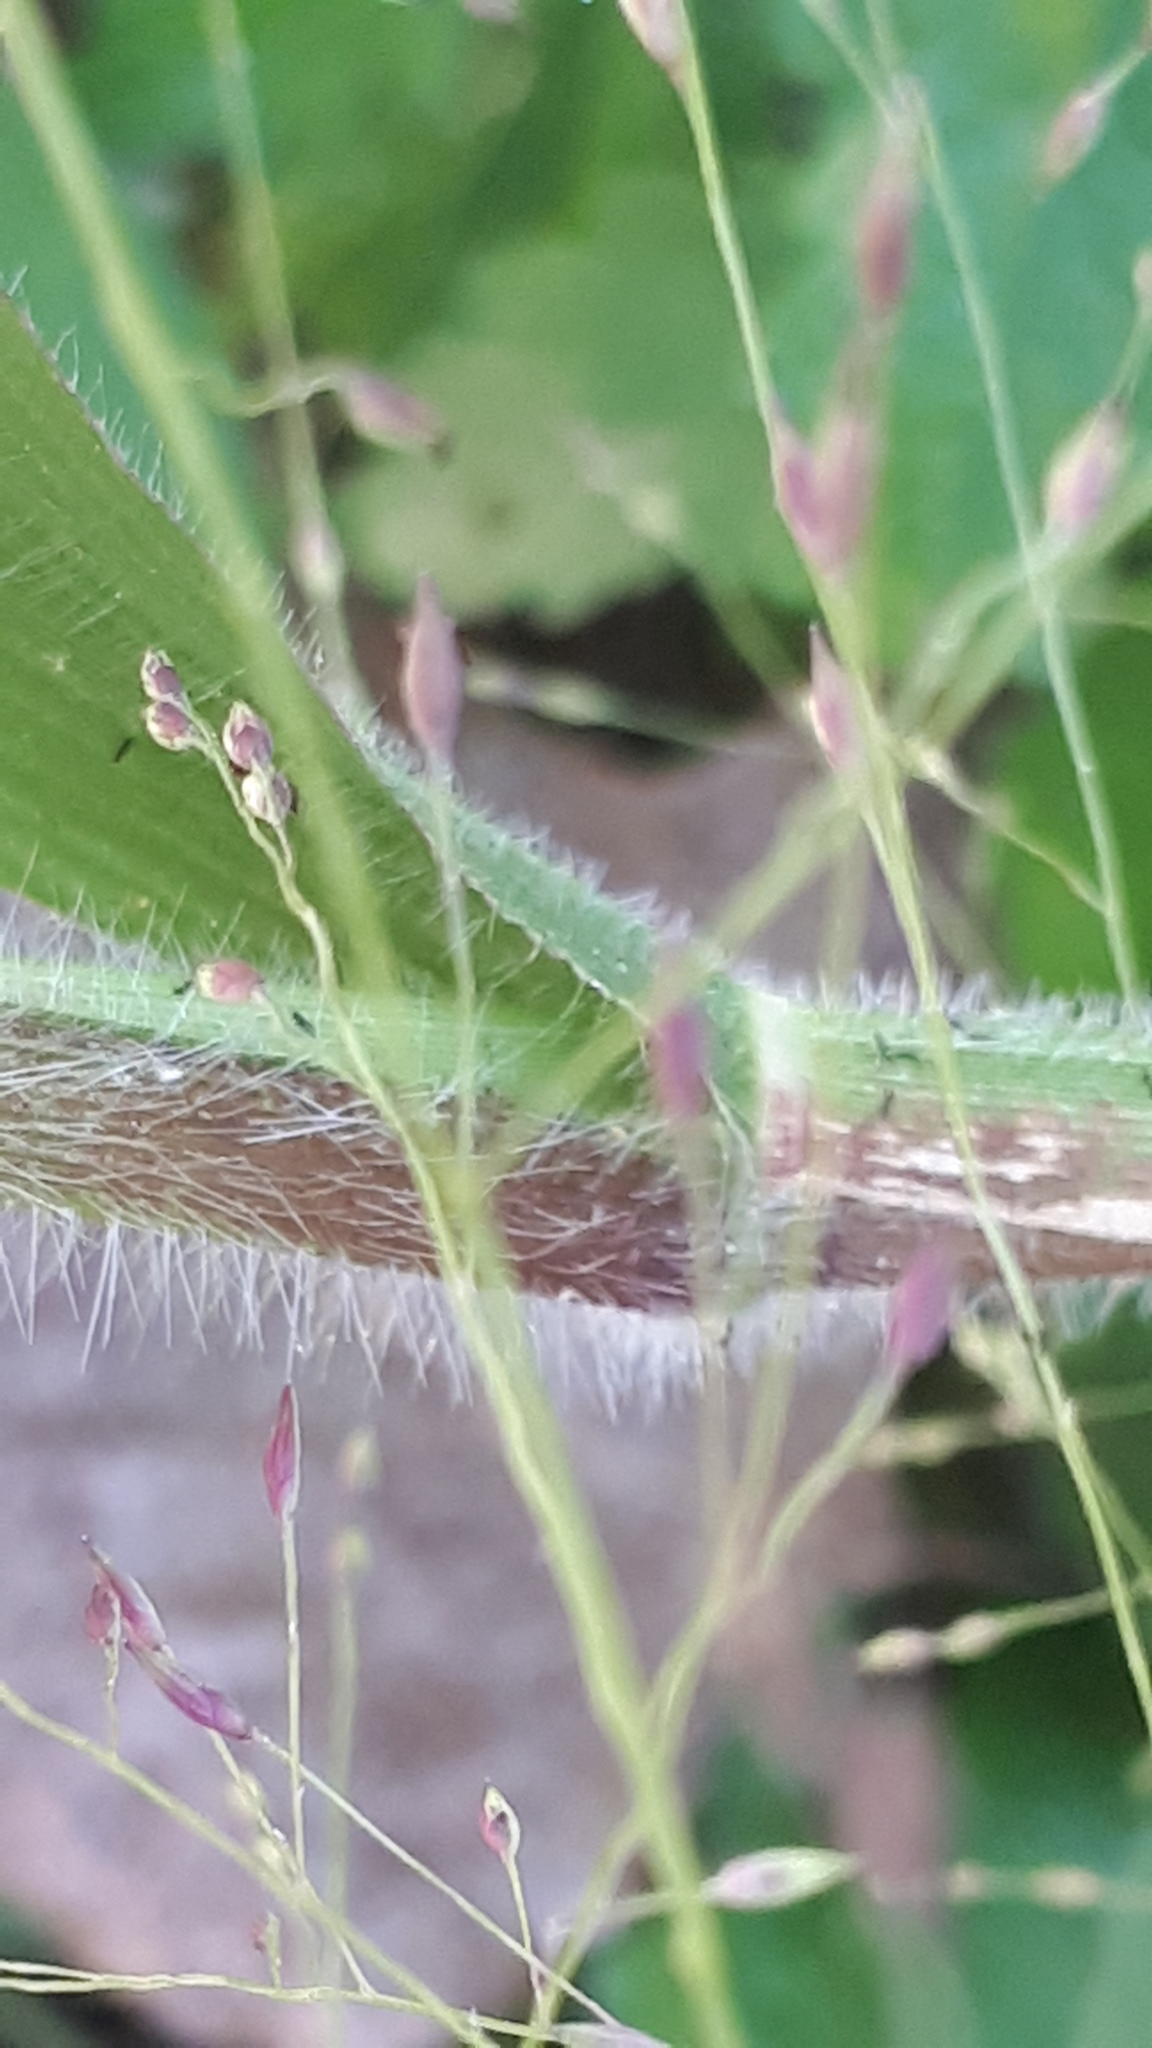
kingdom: Plantae
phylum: Tracheophyta
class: Liliopsida
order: Poales
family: Poaceae
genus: Panicum
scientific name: Panicum capillare
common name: Witch-grass
